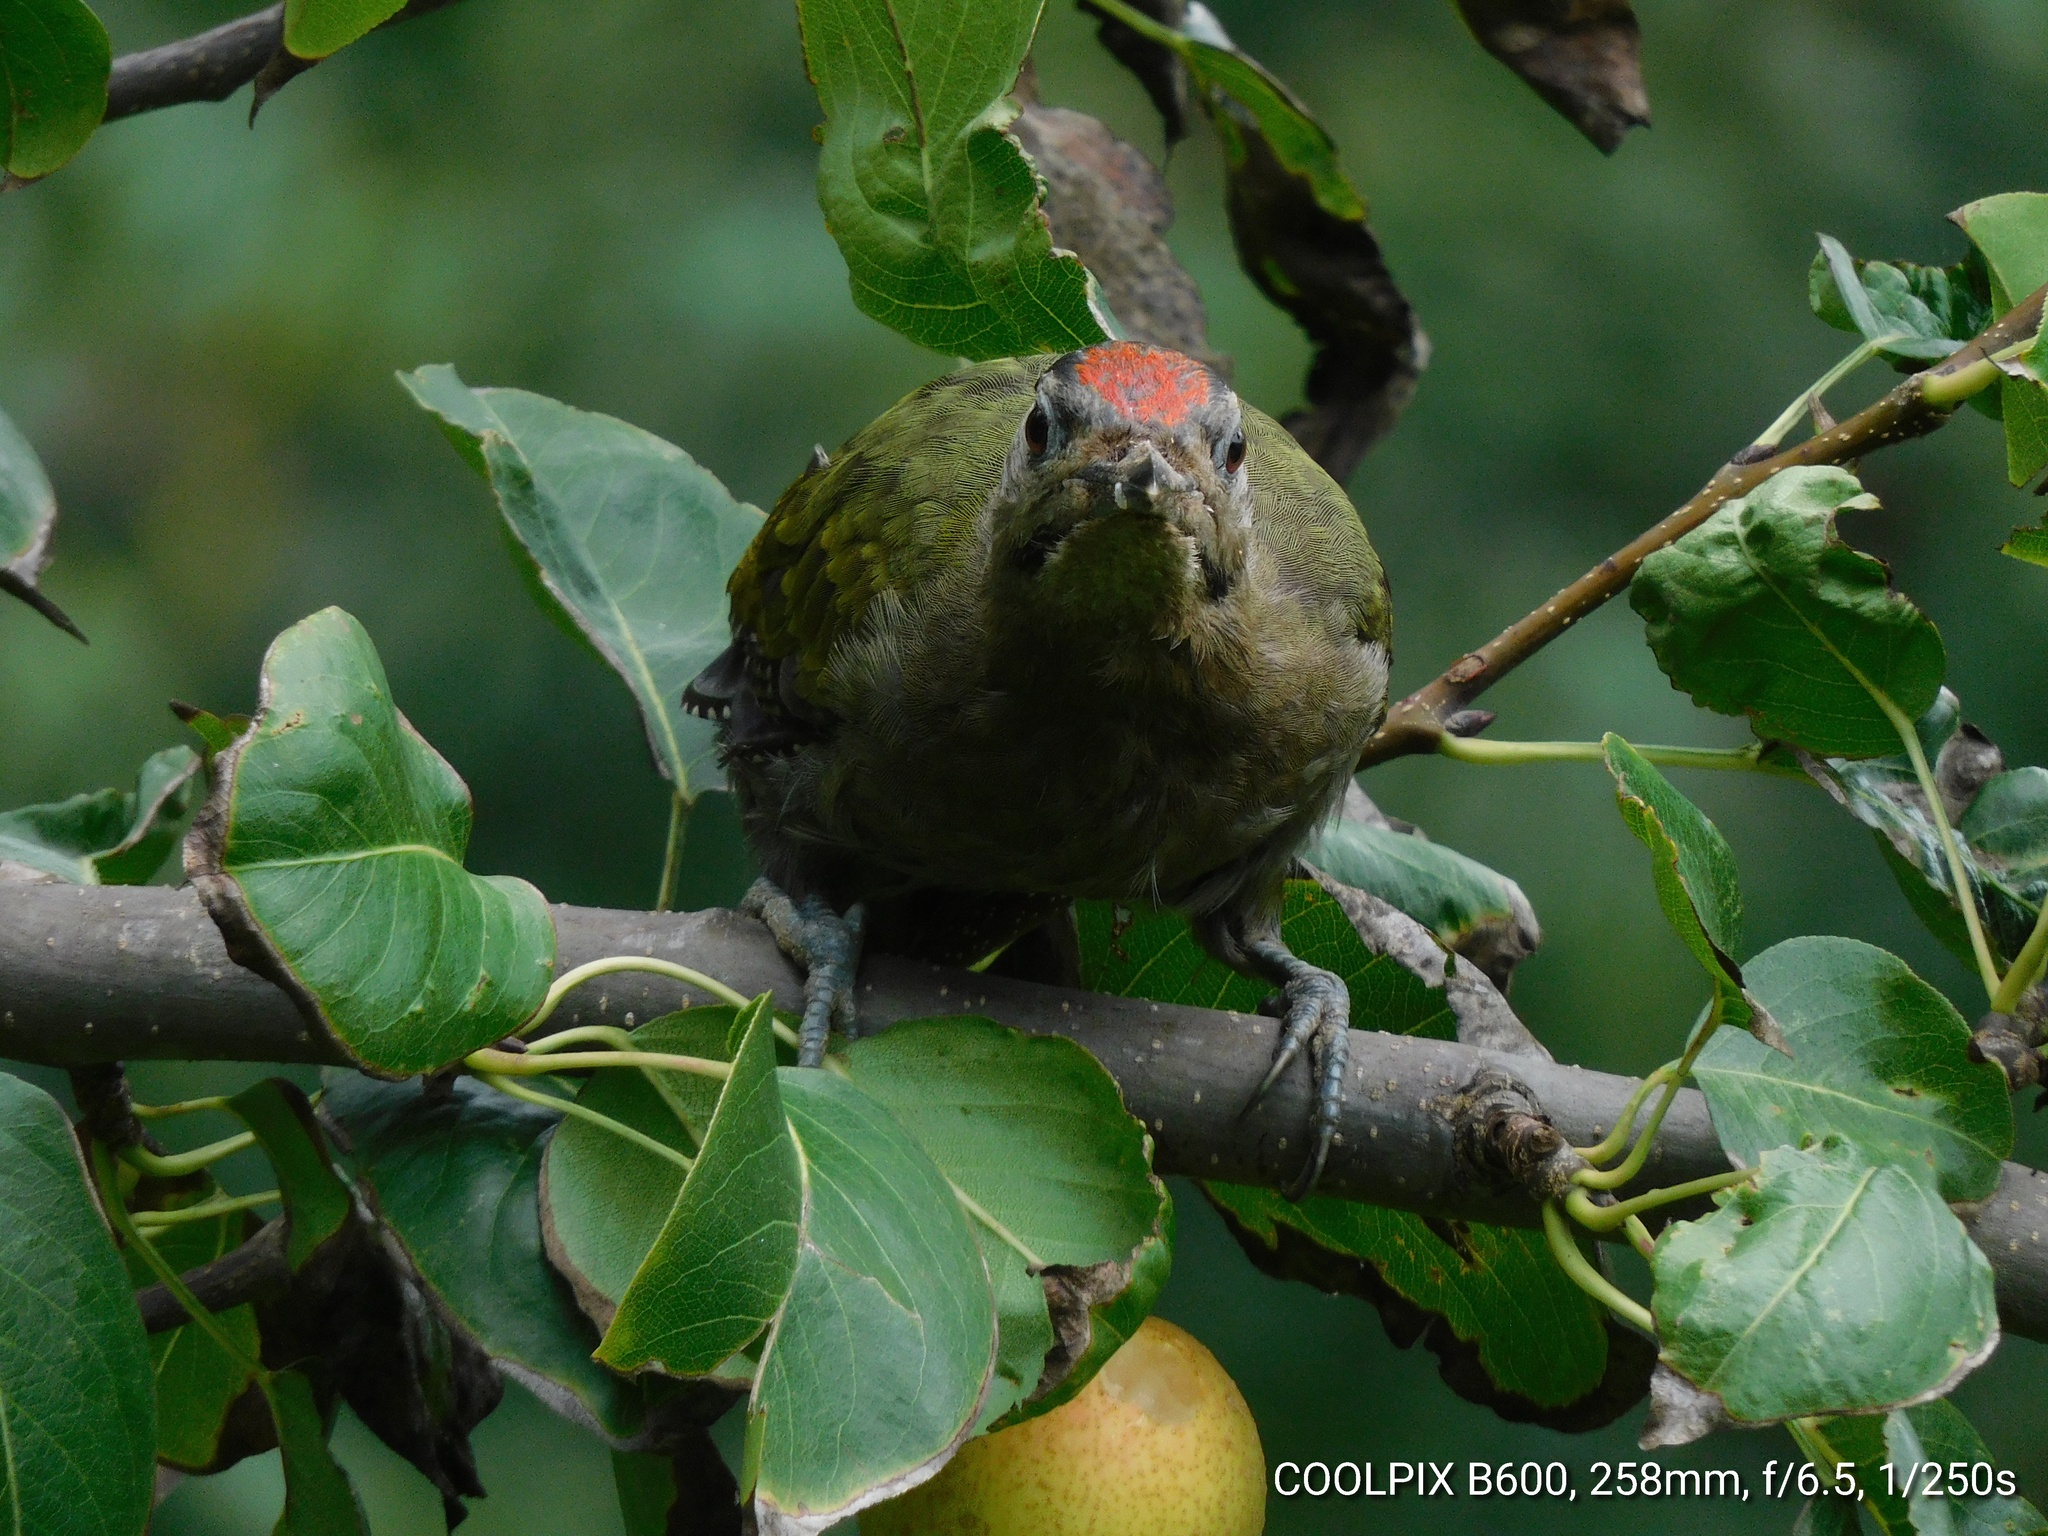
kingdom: Animalia
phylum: Chordata
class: Aves
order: Piciformes
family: Picidae
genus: Picus
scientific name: Picus canus
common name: Grey-headed woodpecker
